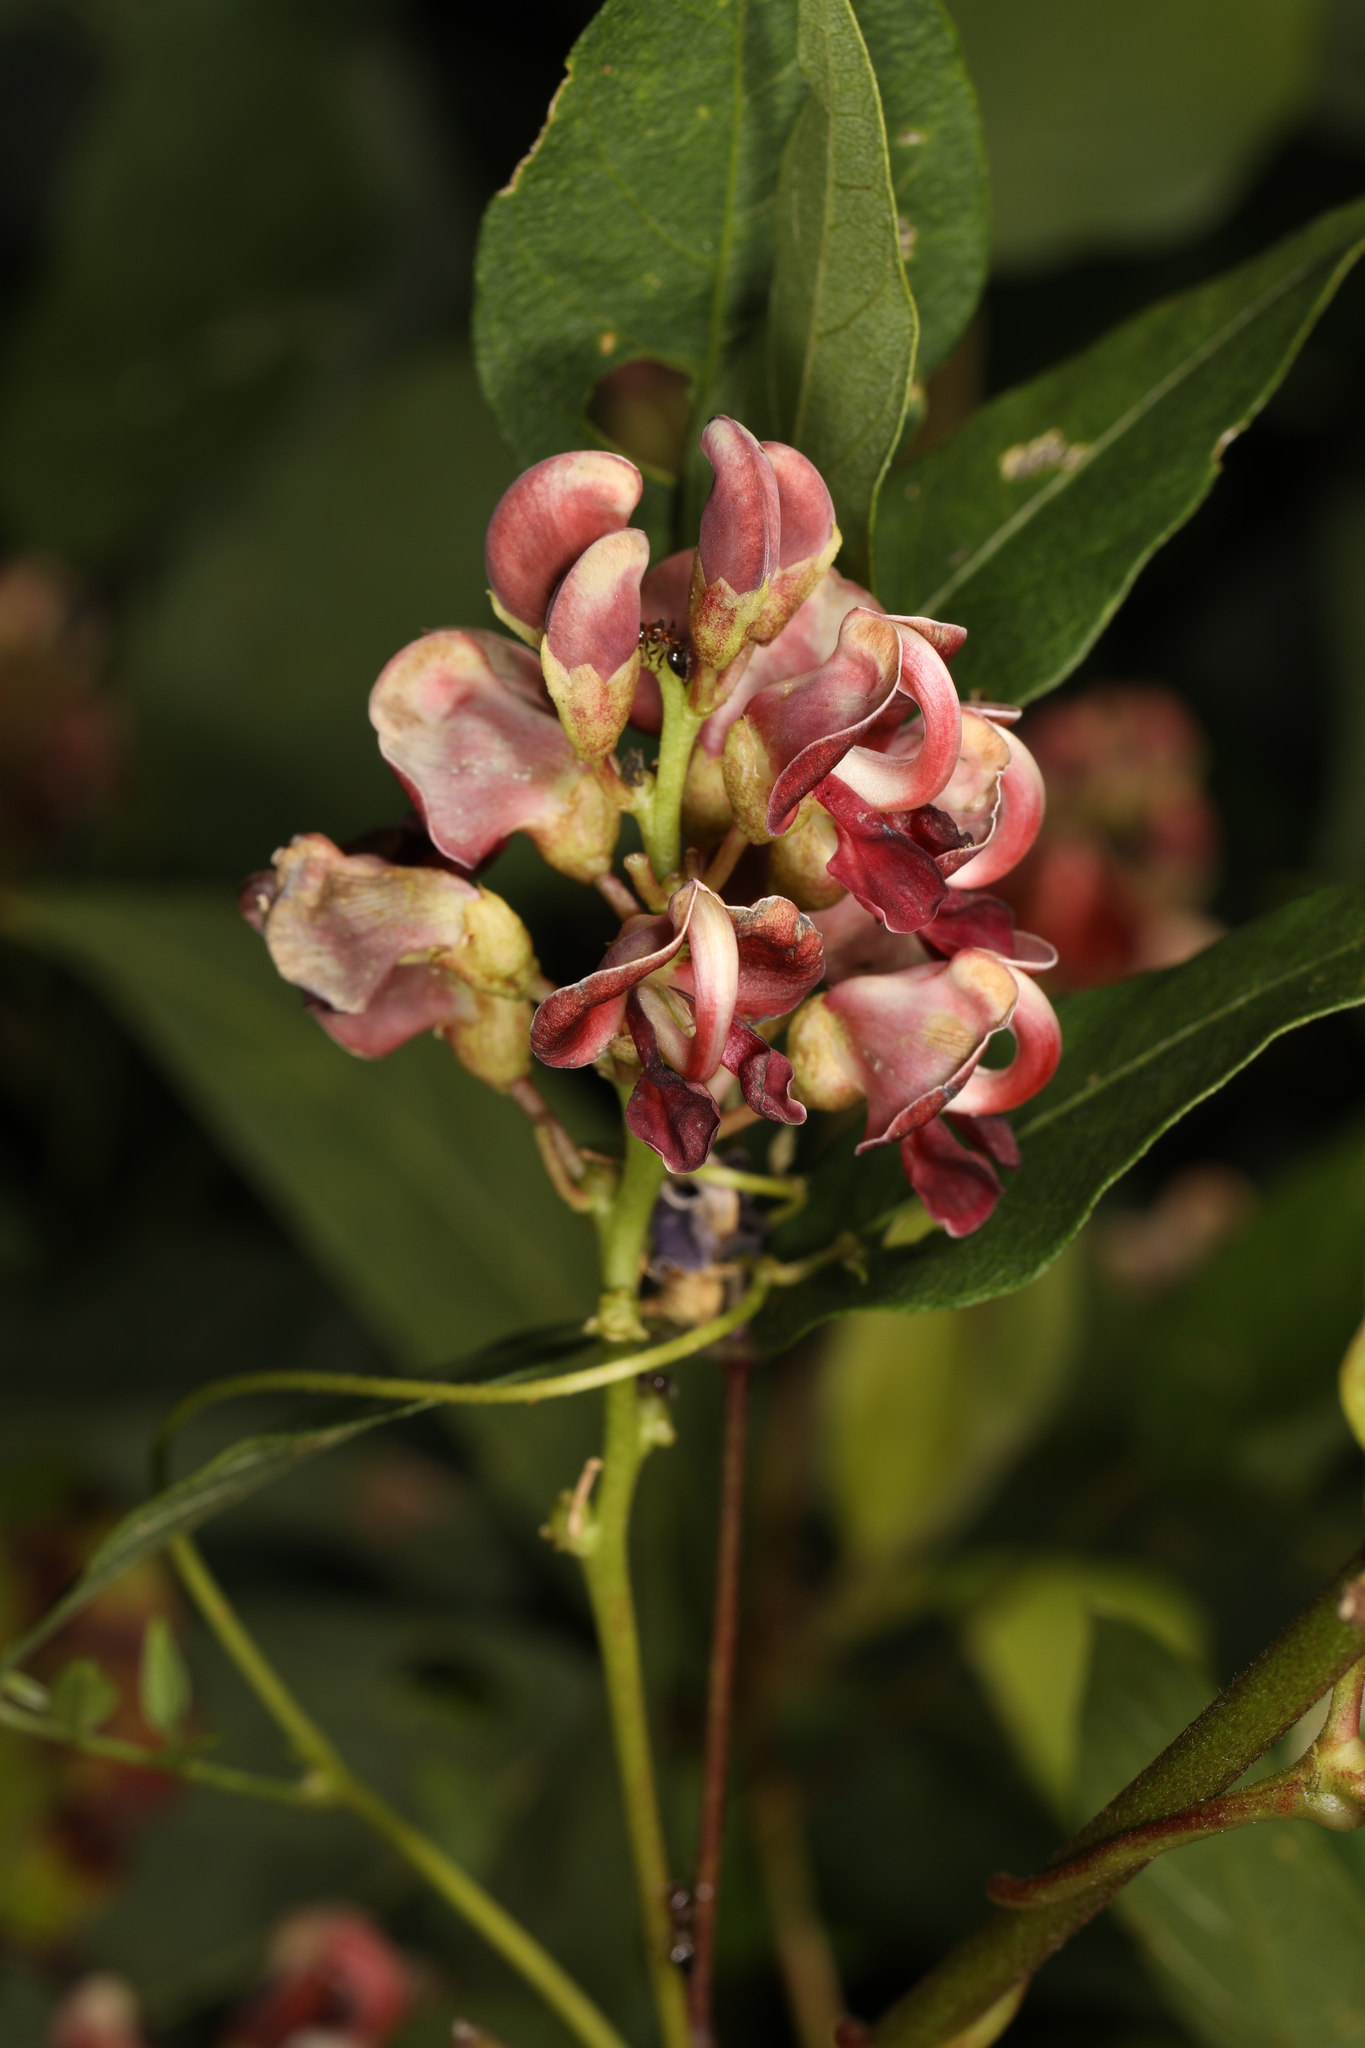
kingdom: Plantae
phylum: Tracheophyta
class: Magnoliopsida
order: Fabales
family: Fabaceae
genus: Apios
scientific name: Apios americana
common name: American potato-bean
